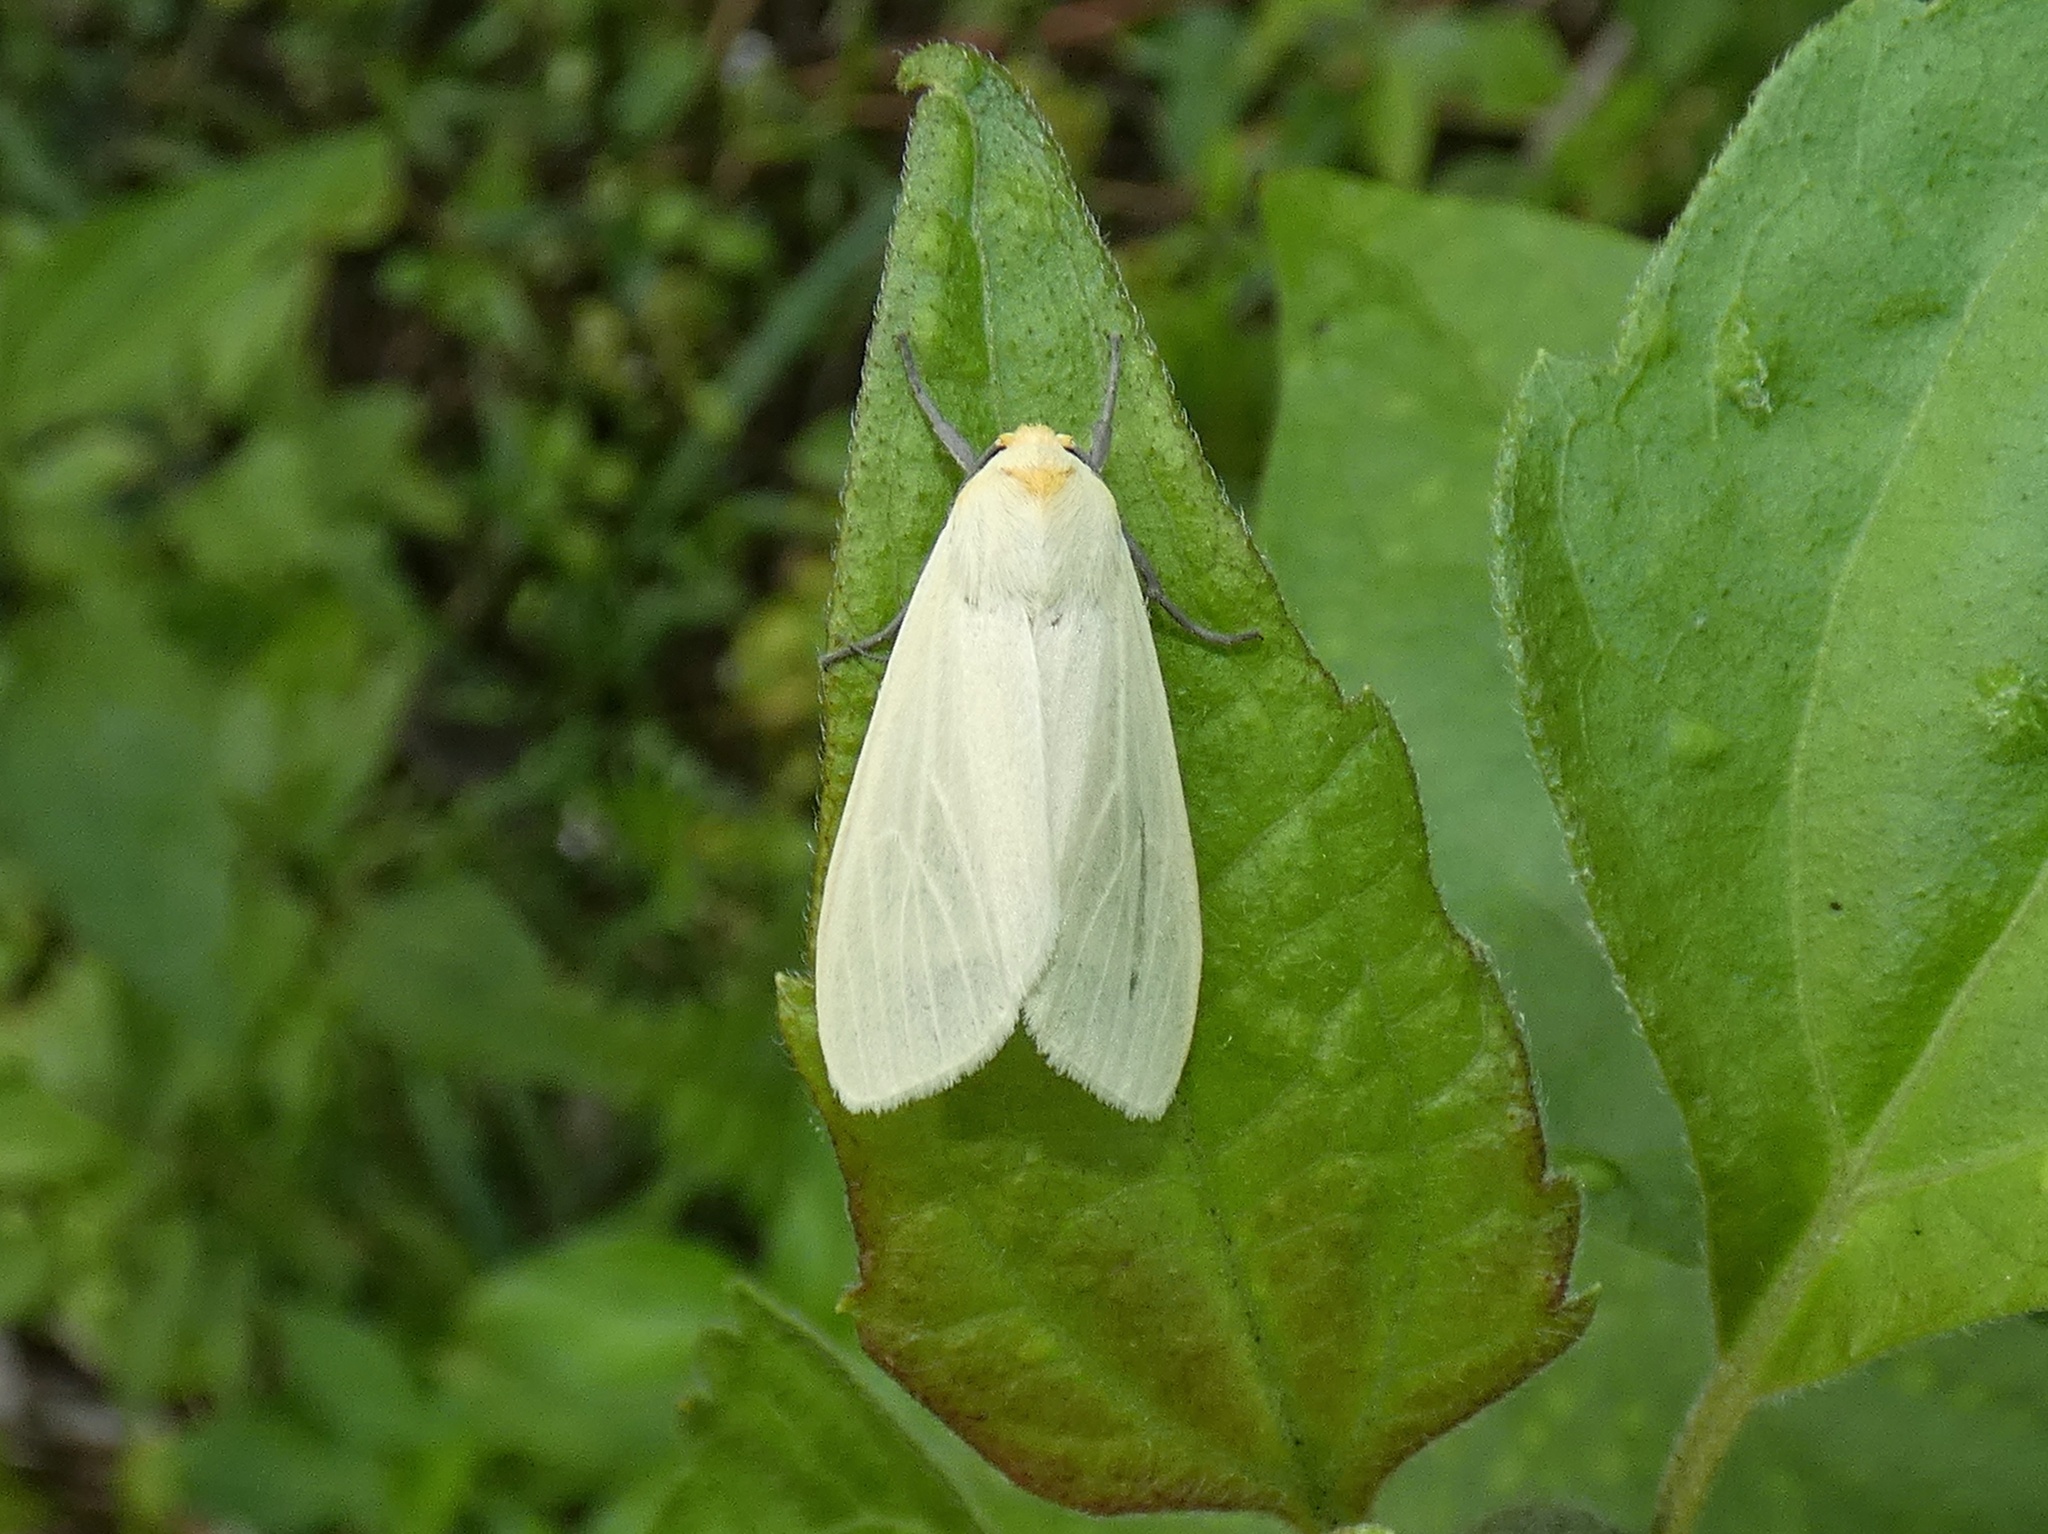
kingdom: Animalia
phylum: Arthropoda
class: Insecta
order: Lepidoptera
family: Erebidae
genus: Pareuchaetes
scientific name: Pareuchaetes pseudoinsulata
